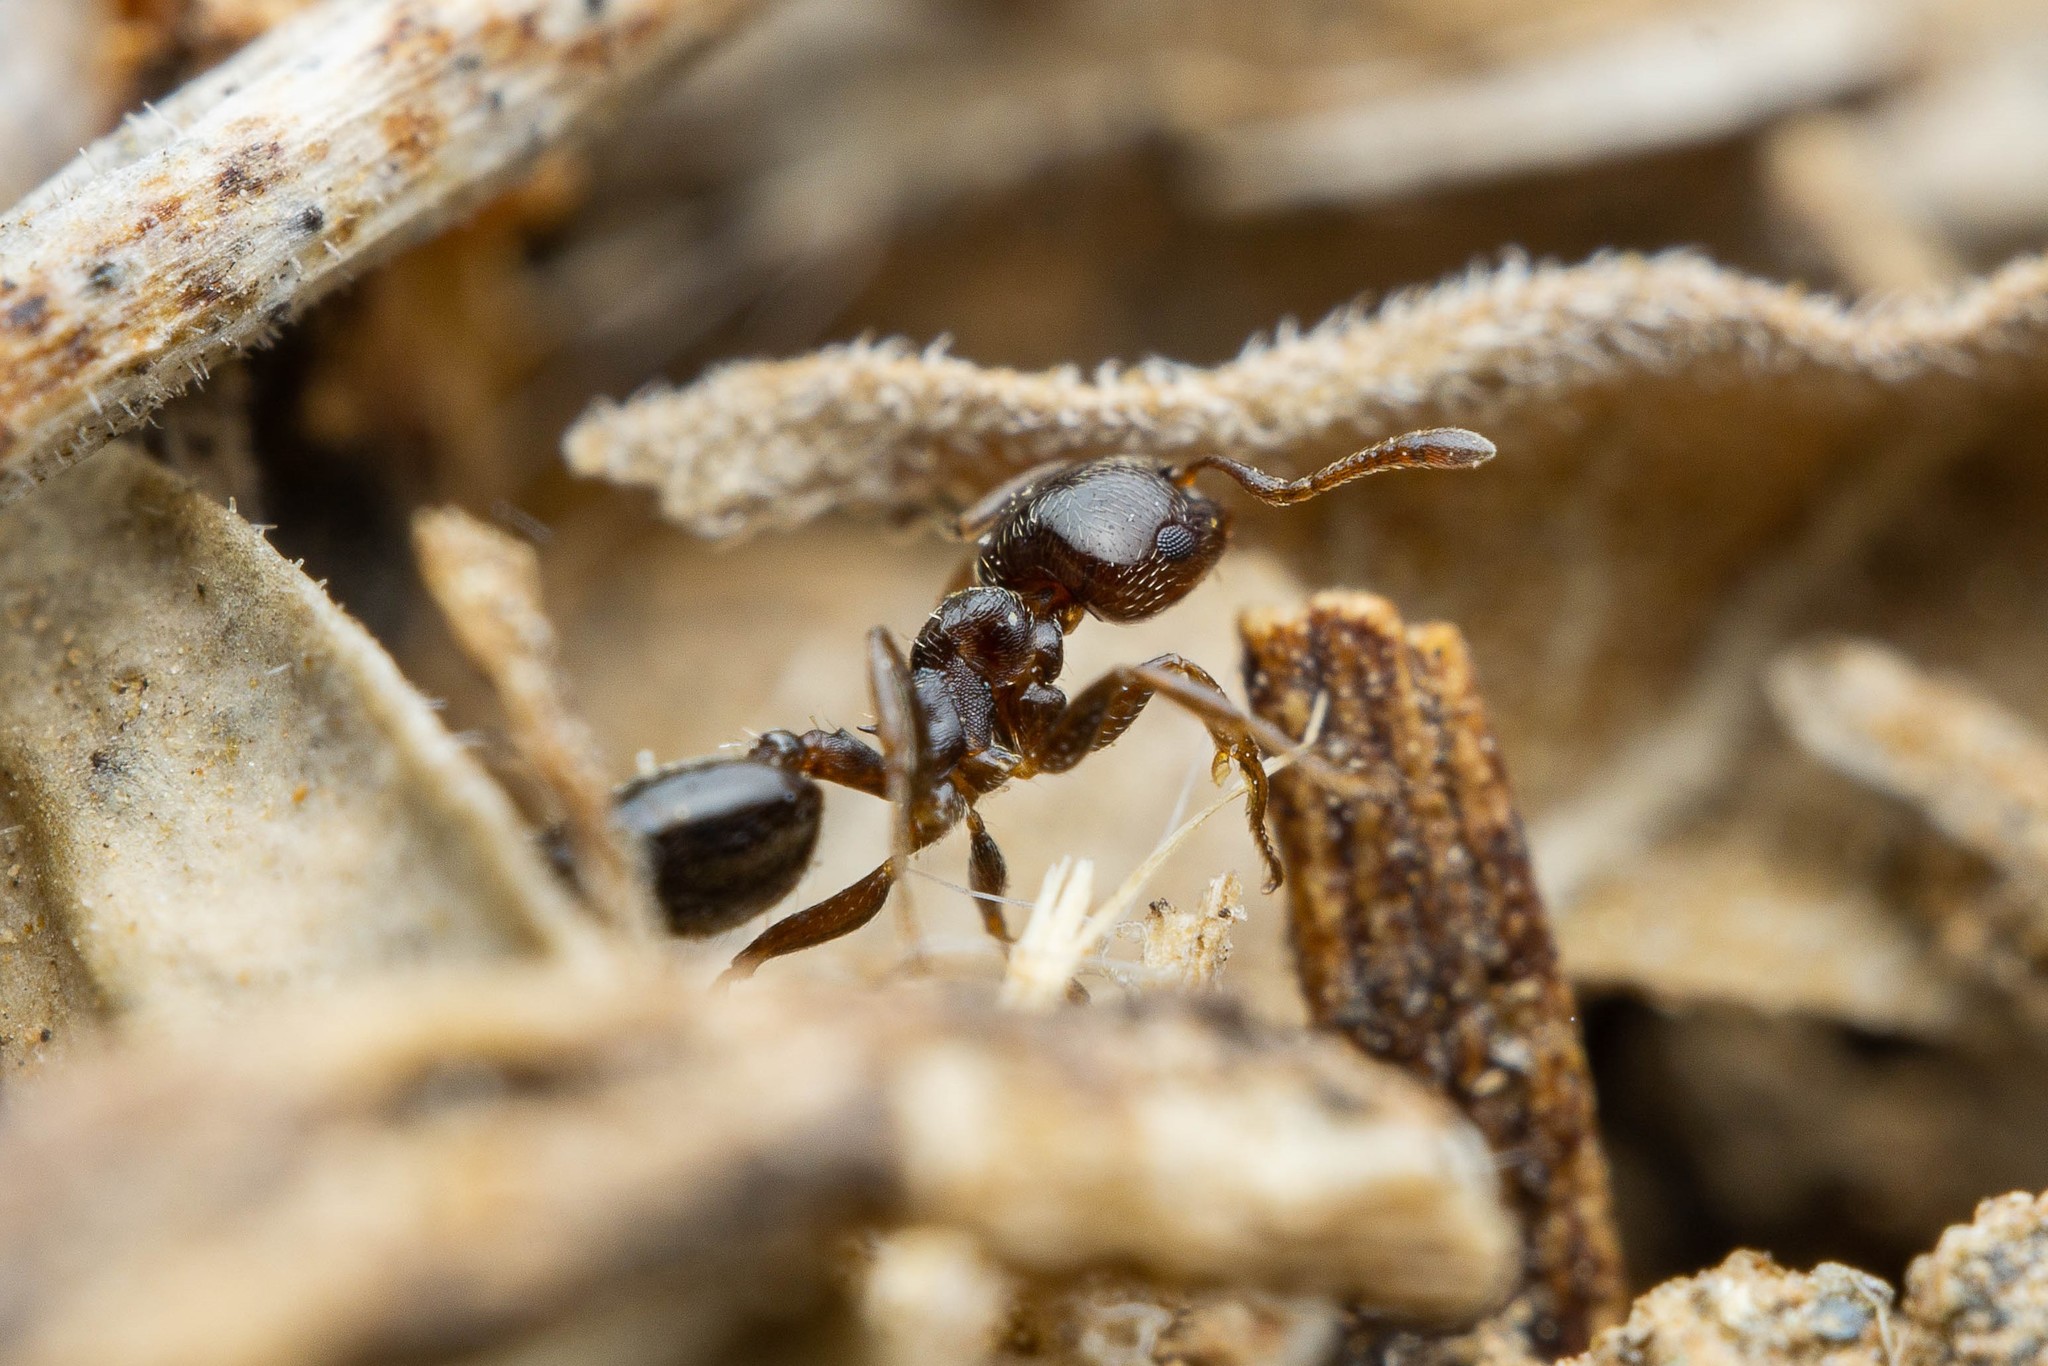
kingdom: Animalia
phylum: Arthropoda
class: Insecta
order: Hymenoptera
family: Formicidae
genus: Crematogaster
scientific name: Crematogaster torosa
